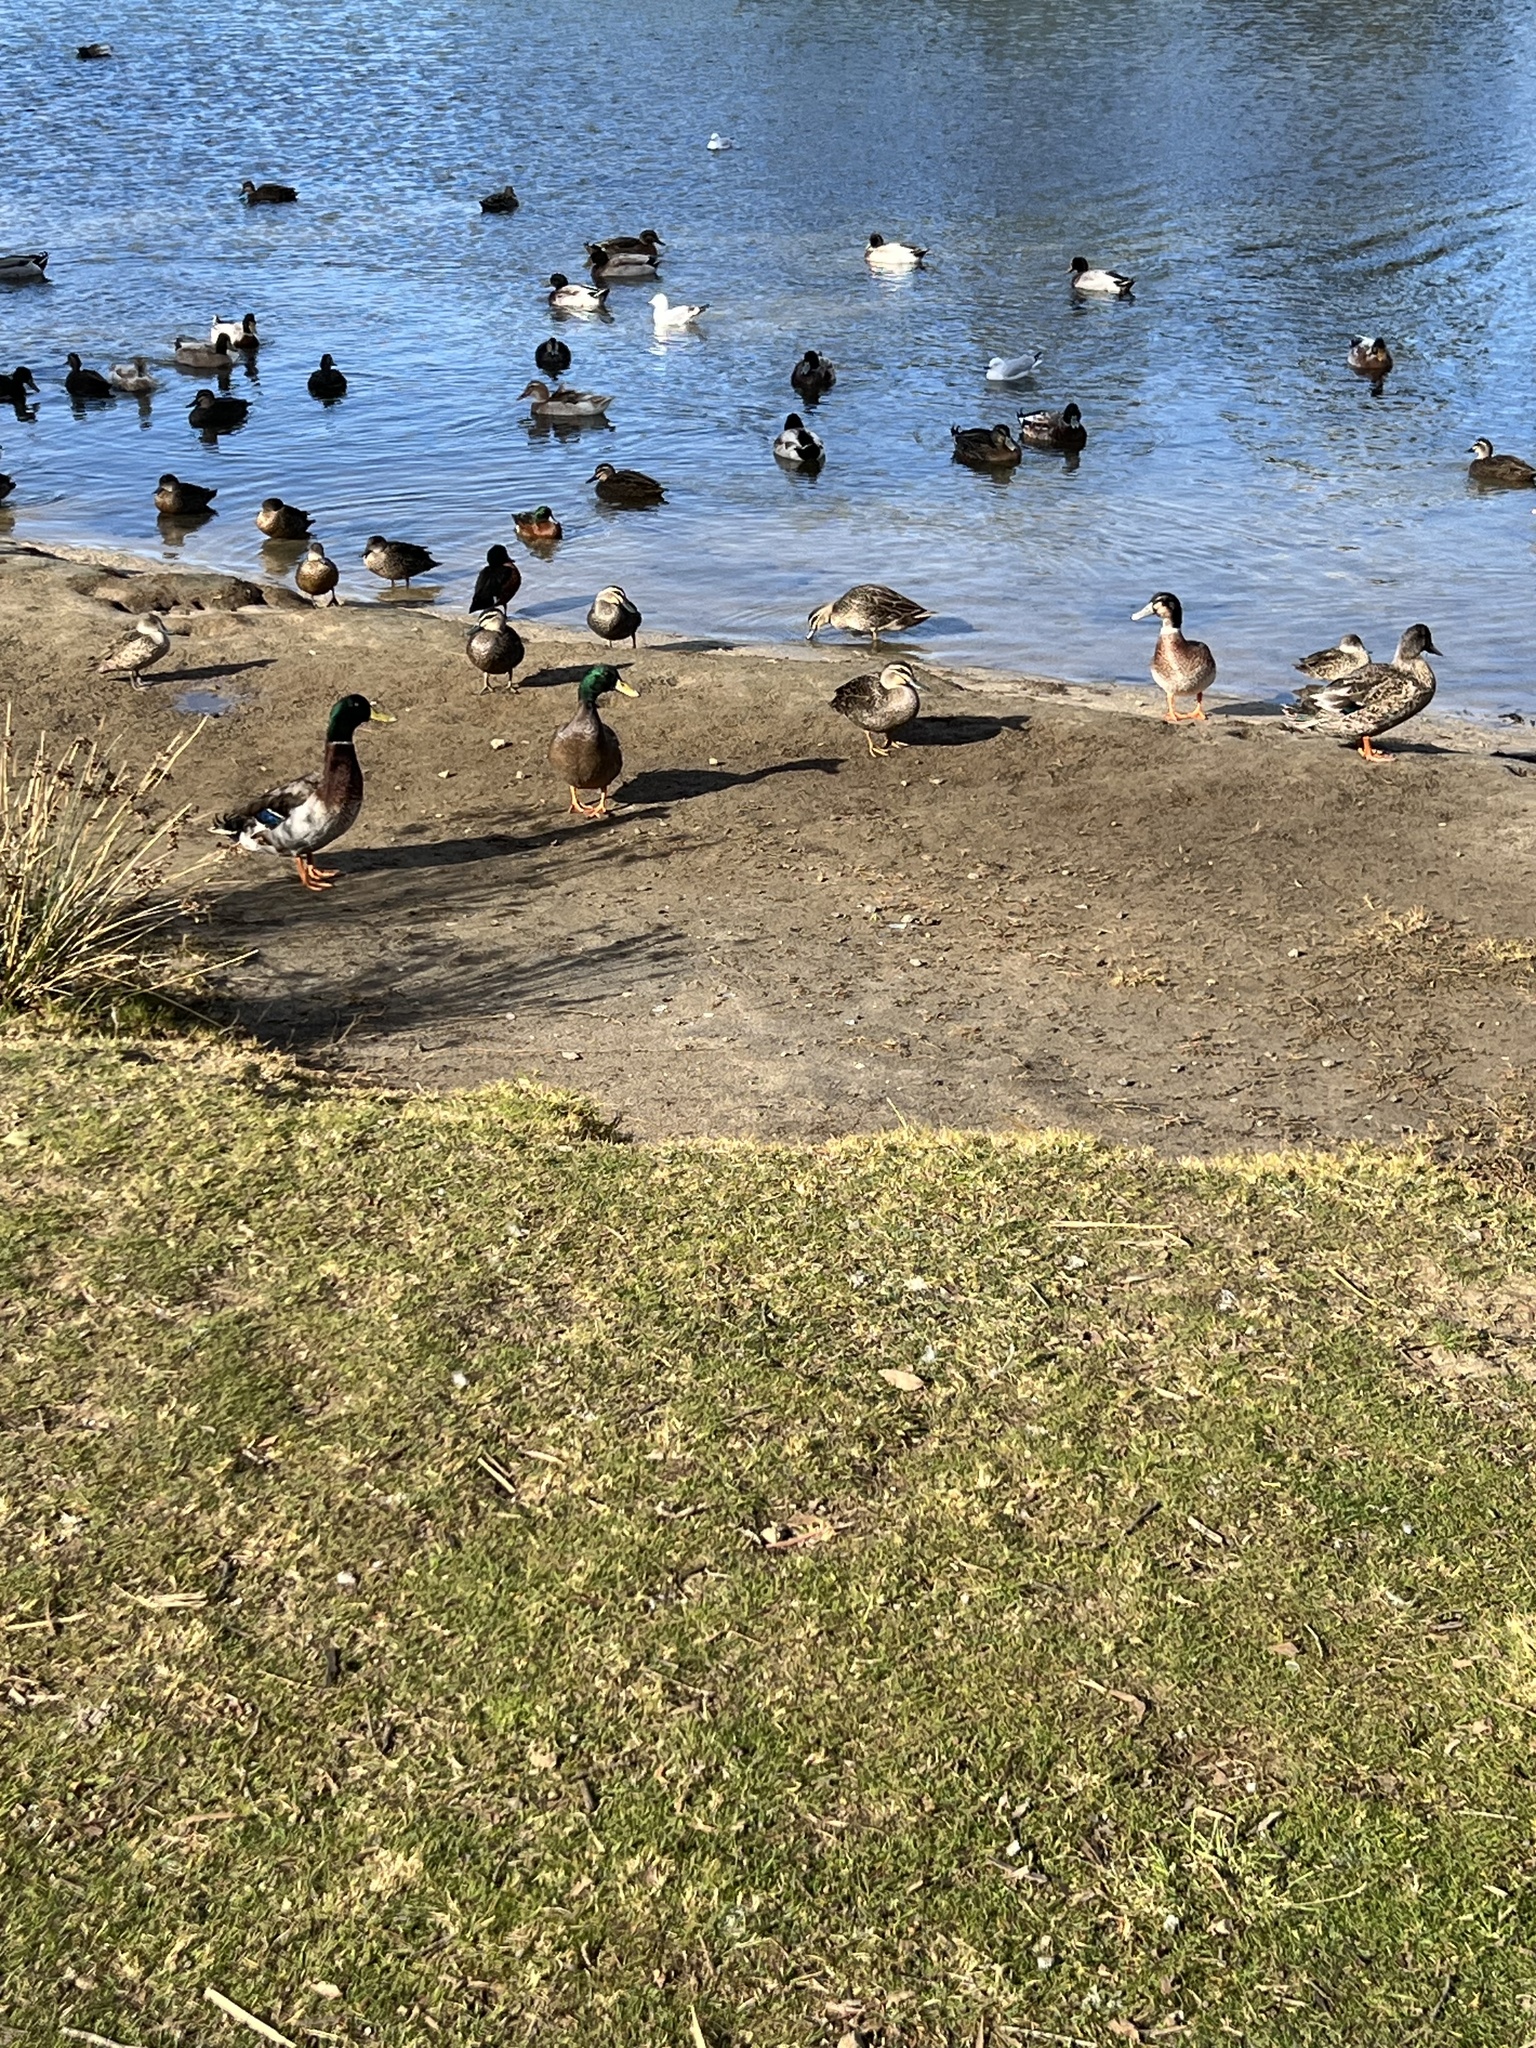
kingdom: Animalia
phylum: Chordata
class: Aves
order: Anseriformes
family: Anatidae
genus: Anas
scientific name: Anas platyrhynchos
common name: Mallard
